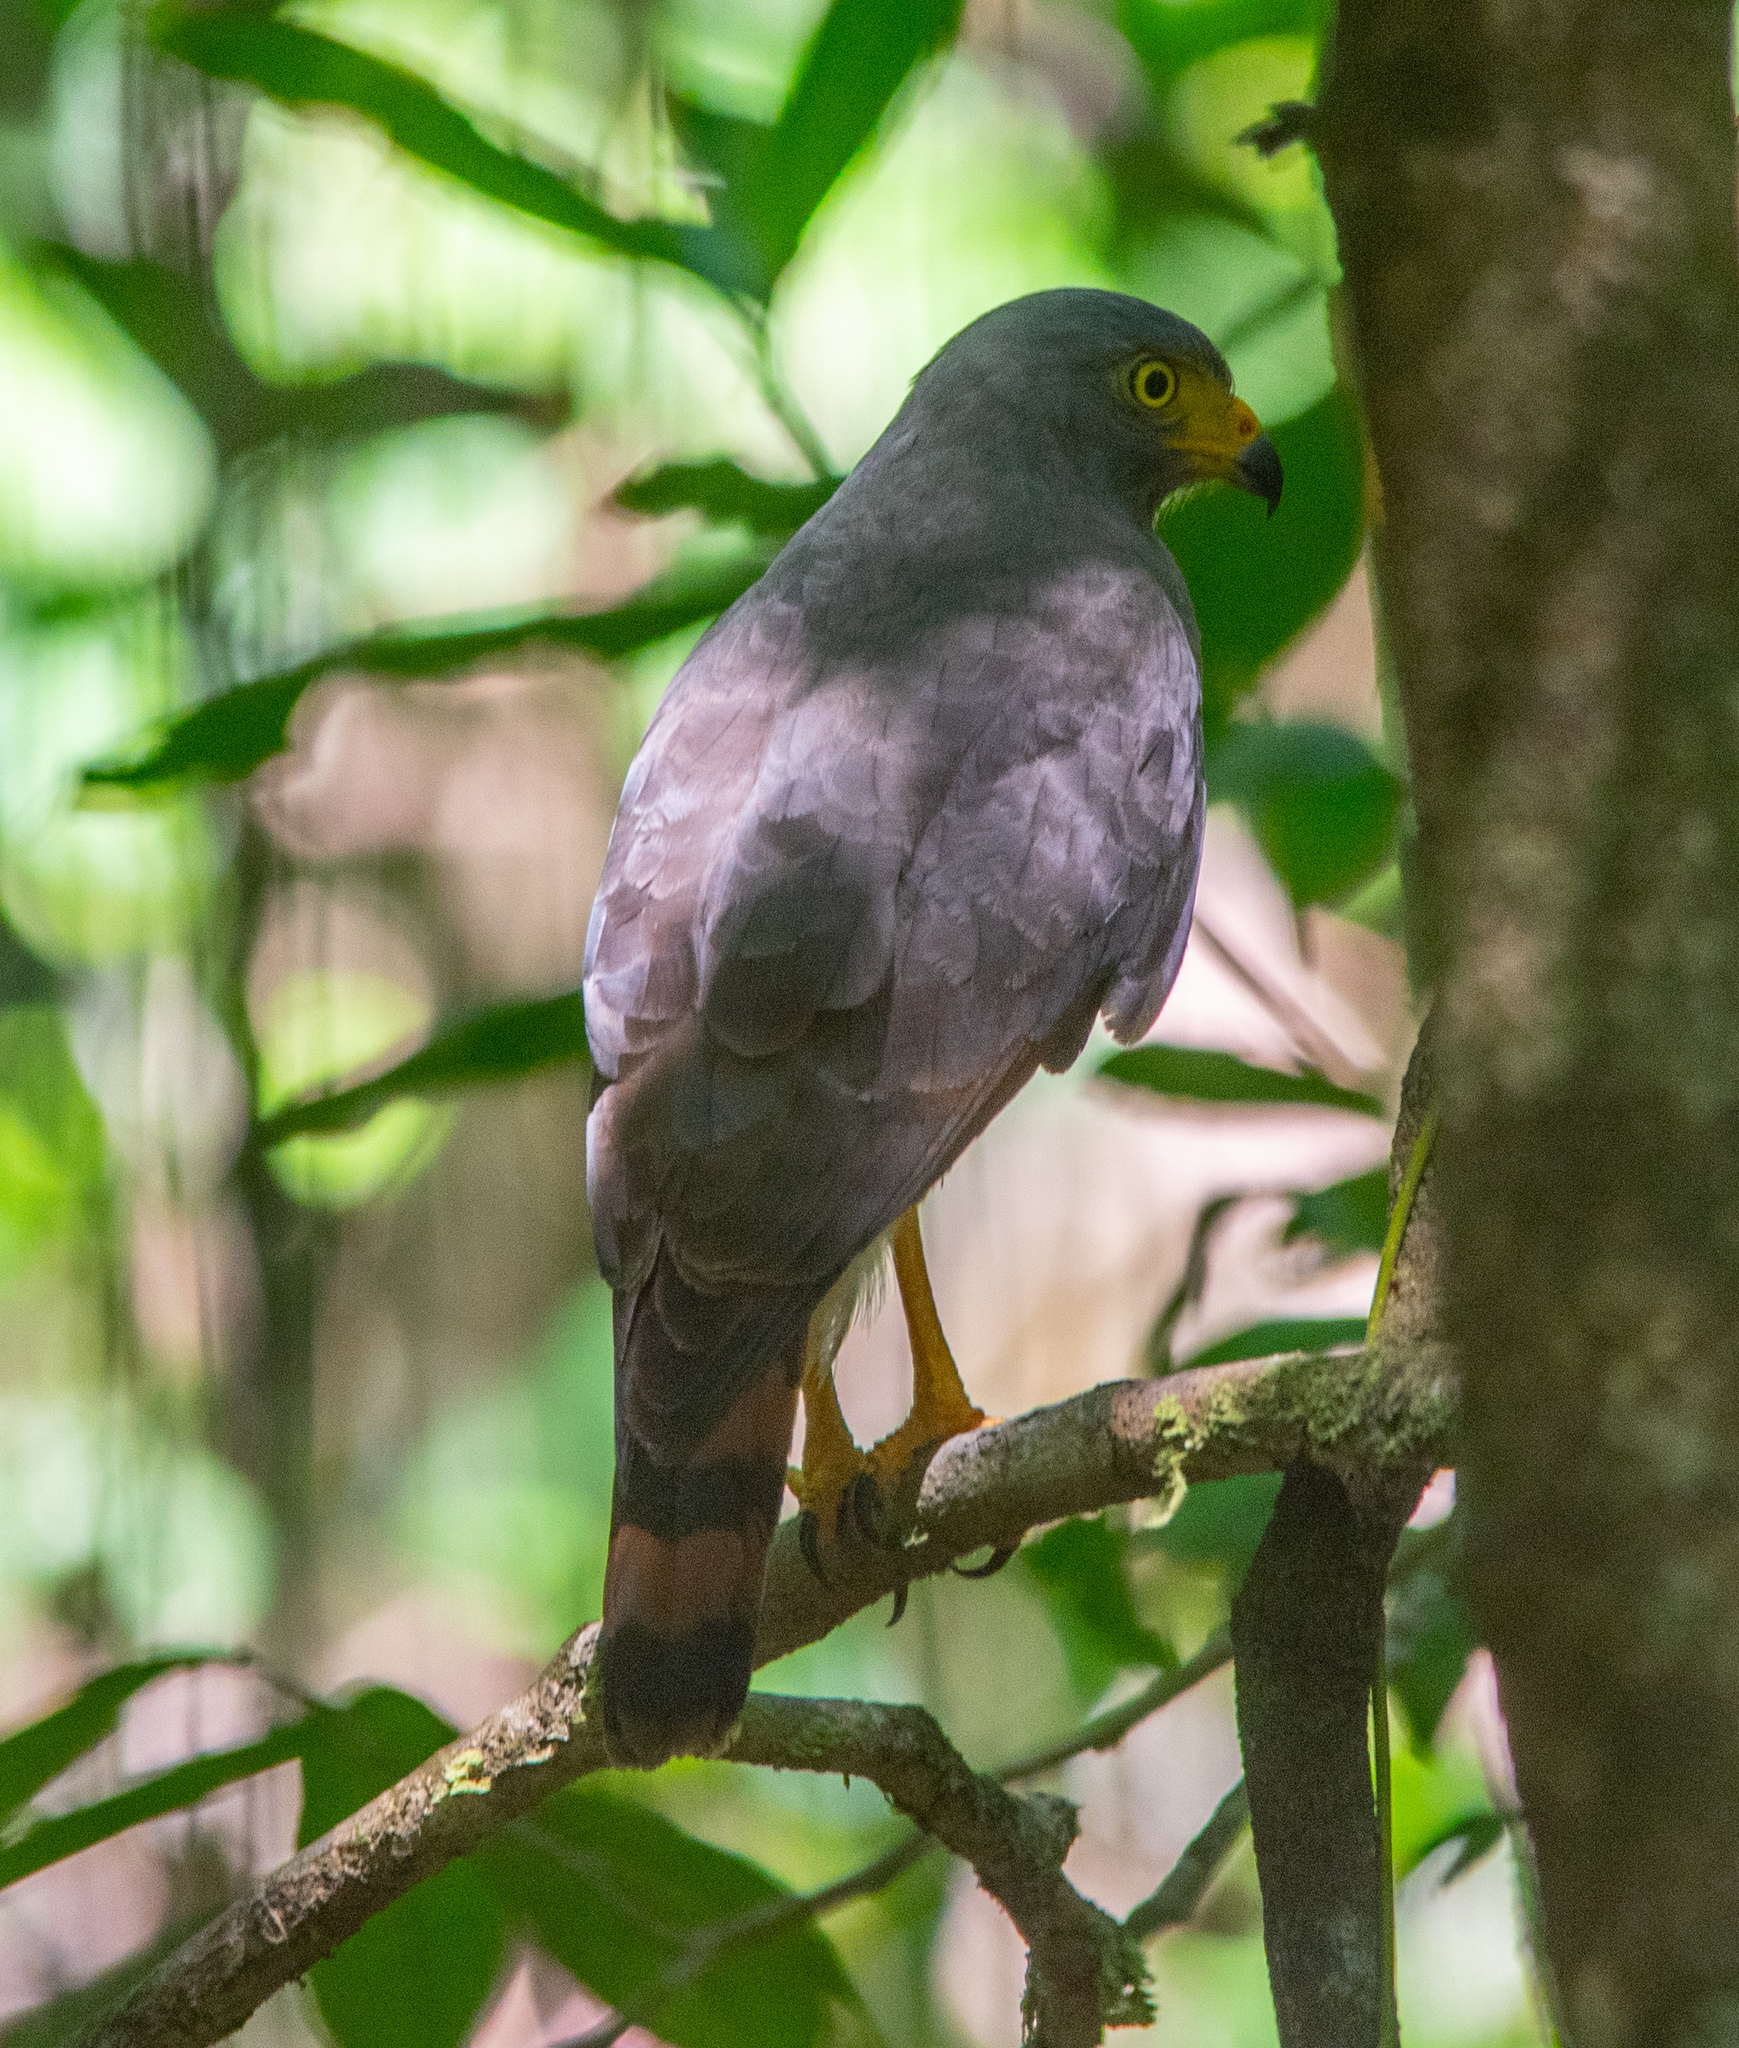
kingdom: Animalia
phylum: Chordata
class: Aves
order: Accipitriformes
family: Accipitridae
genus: Rupornis
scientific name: Rupornis magnirostris
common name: Roadside hawk
